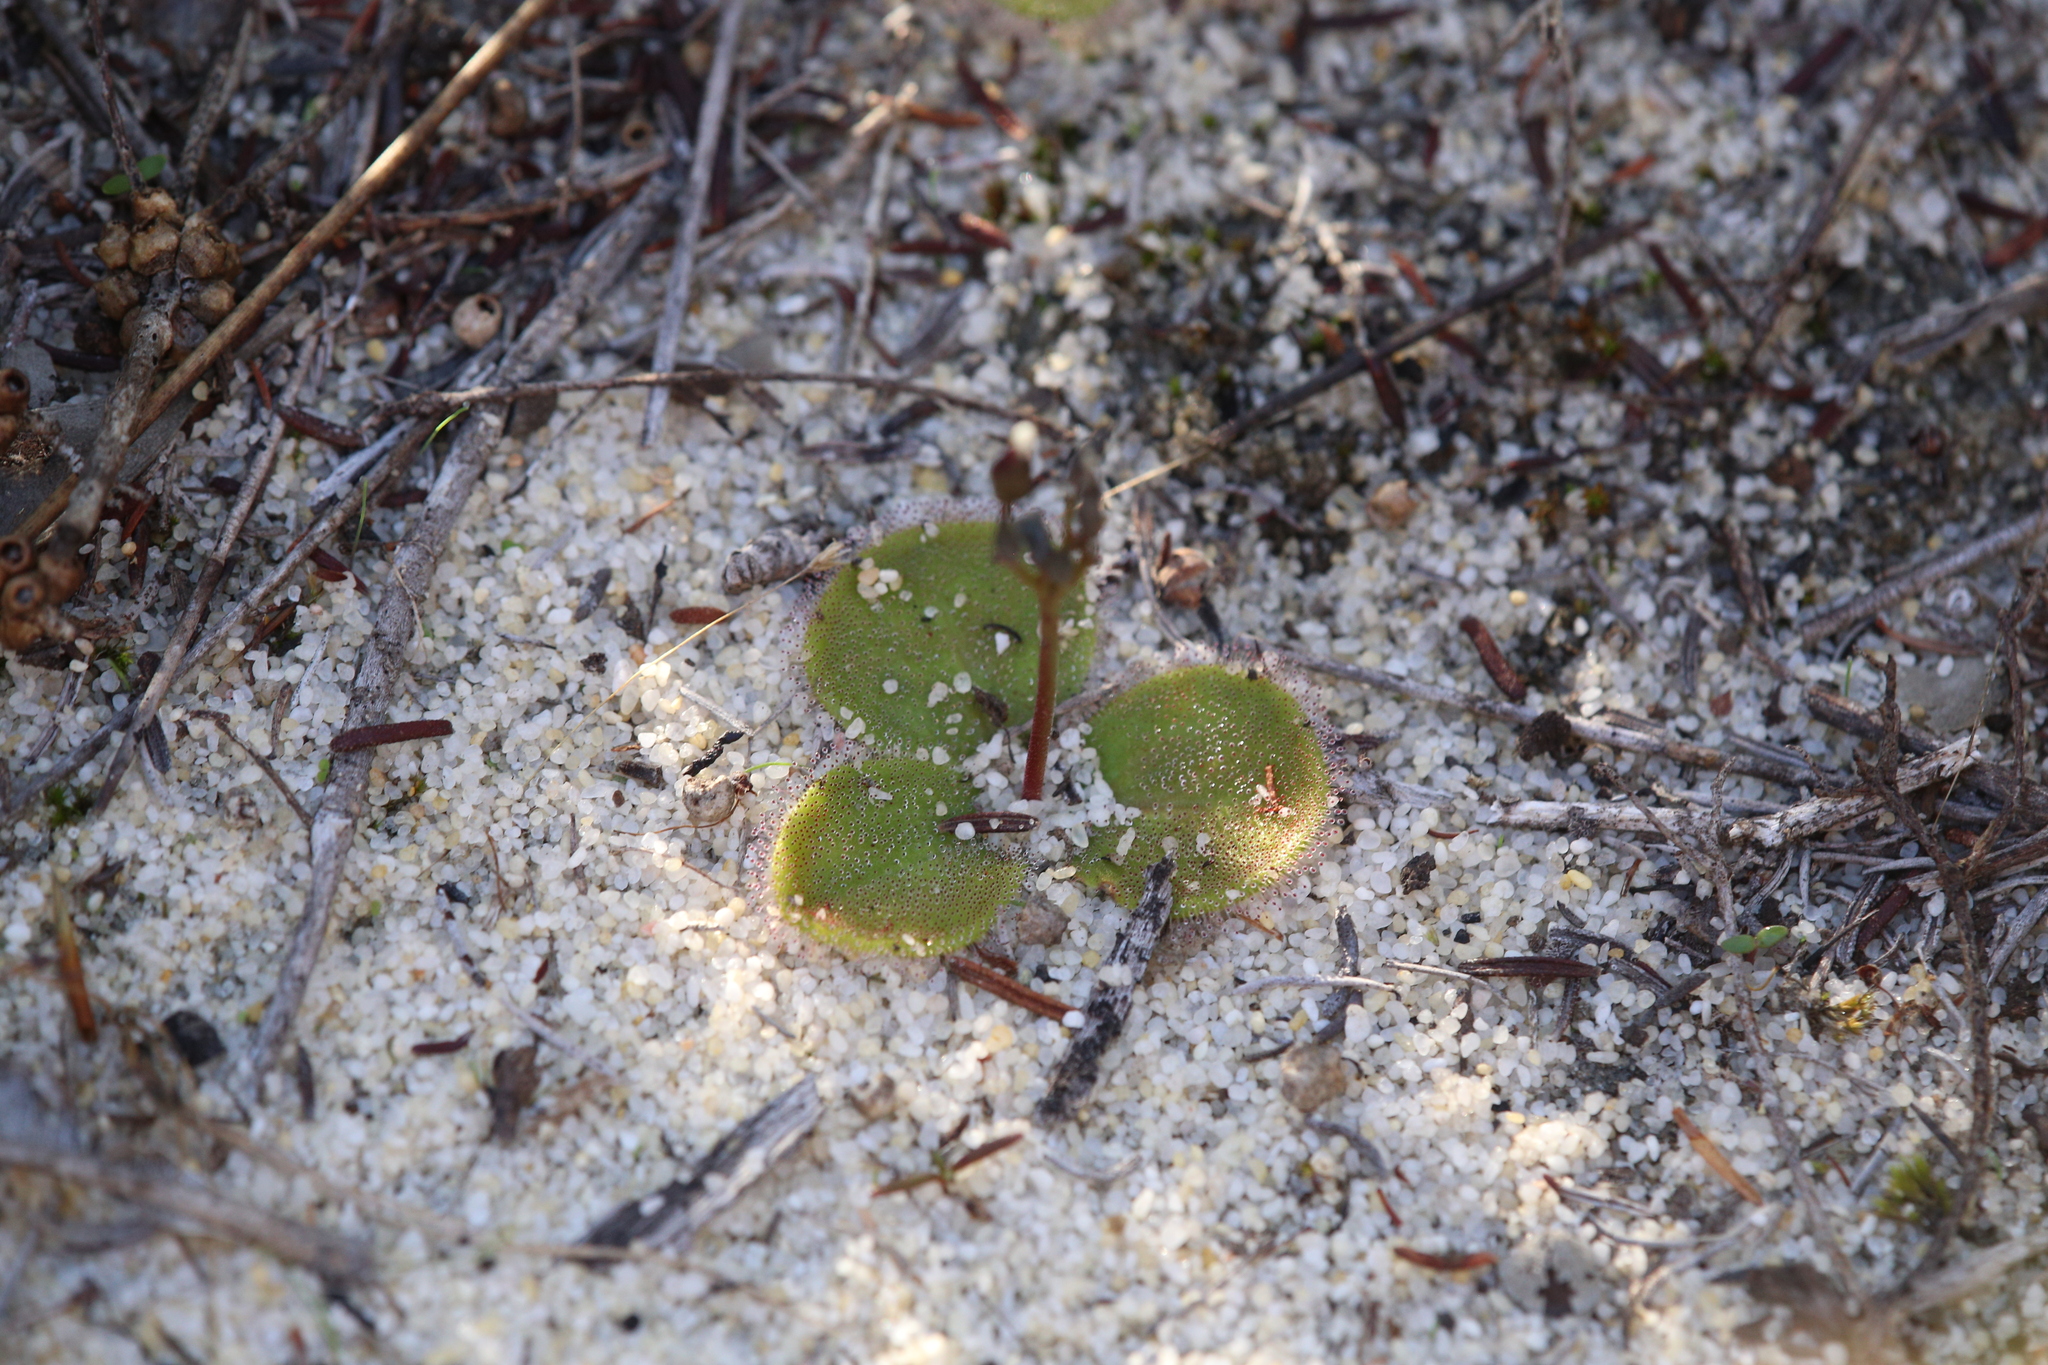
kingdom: Plantae
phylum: Tracheophyta
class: Magnoliopsida
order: Caryophyllales
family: Droseraceae
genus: Drosera
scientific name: Drosera erythrorhiza
